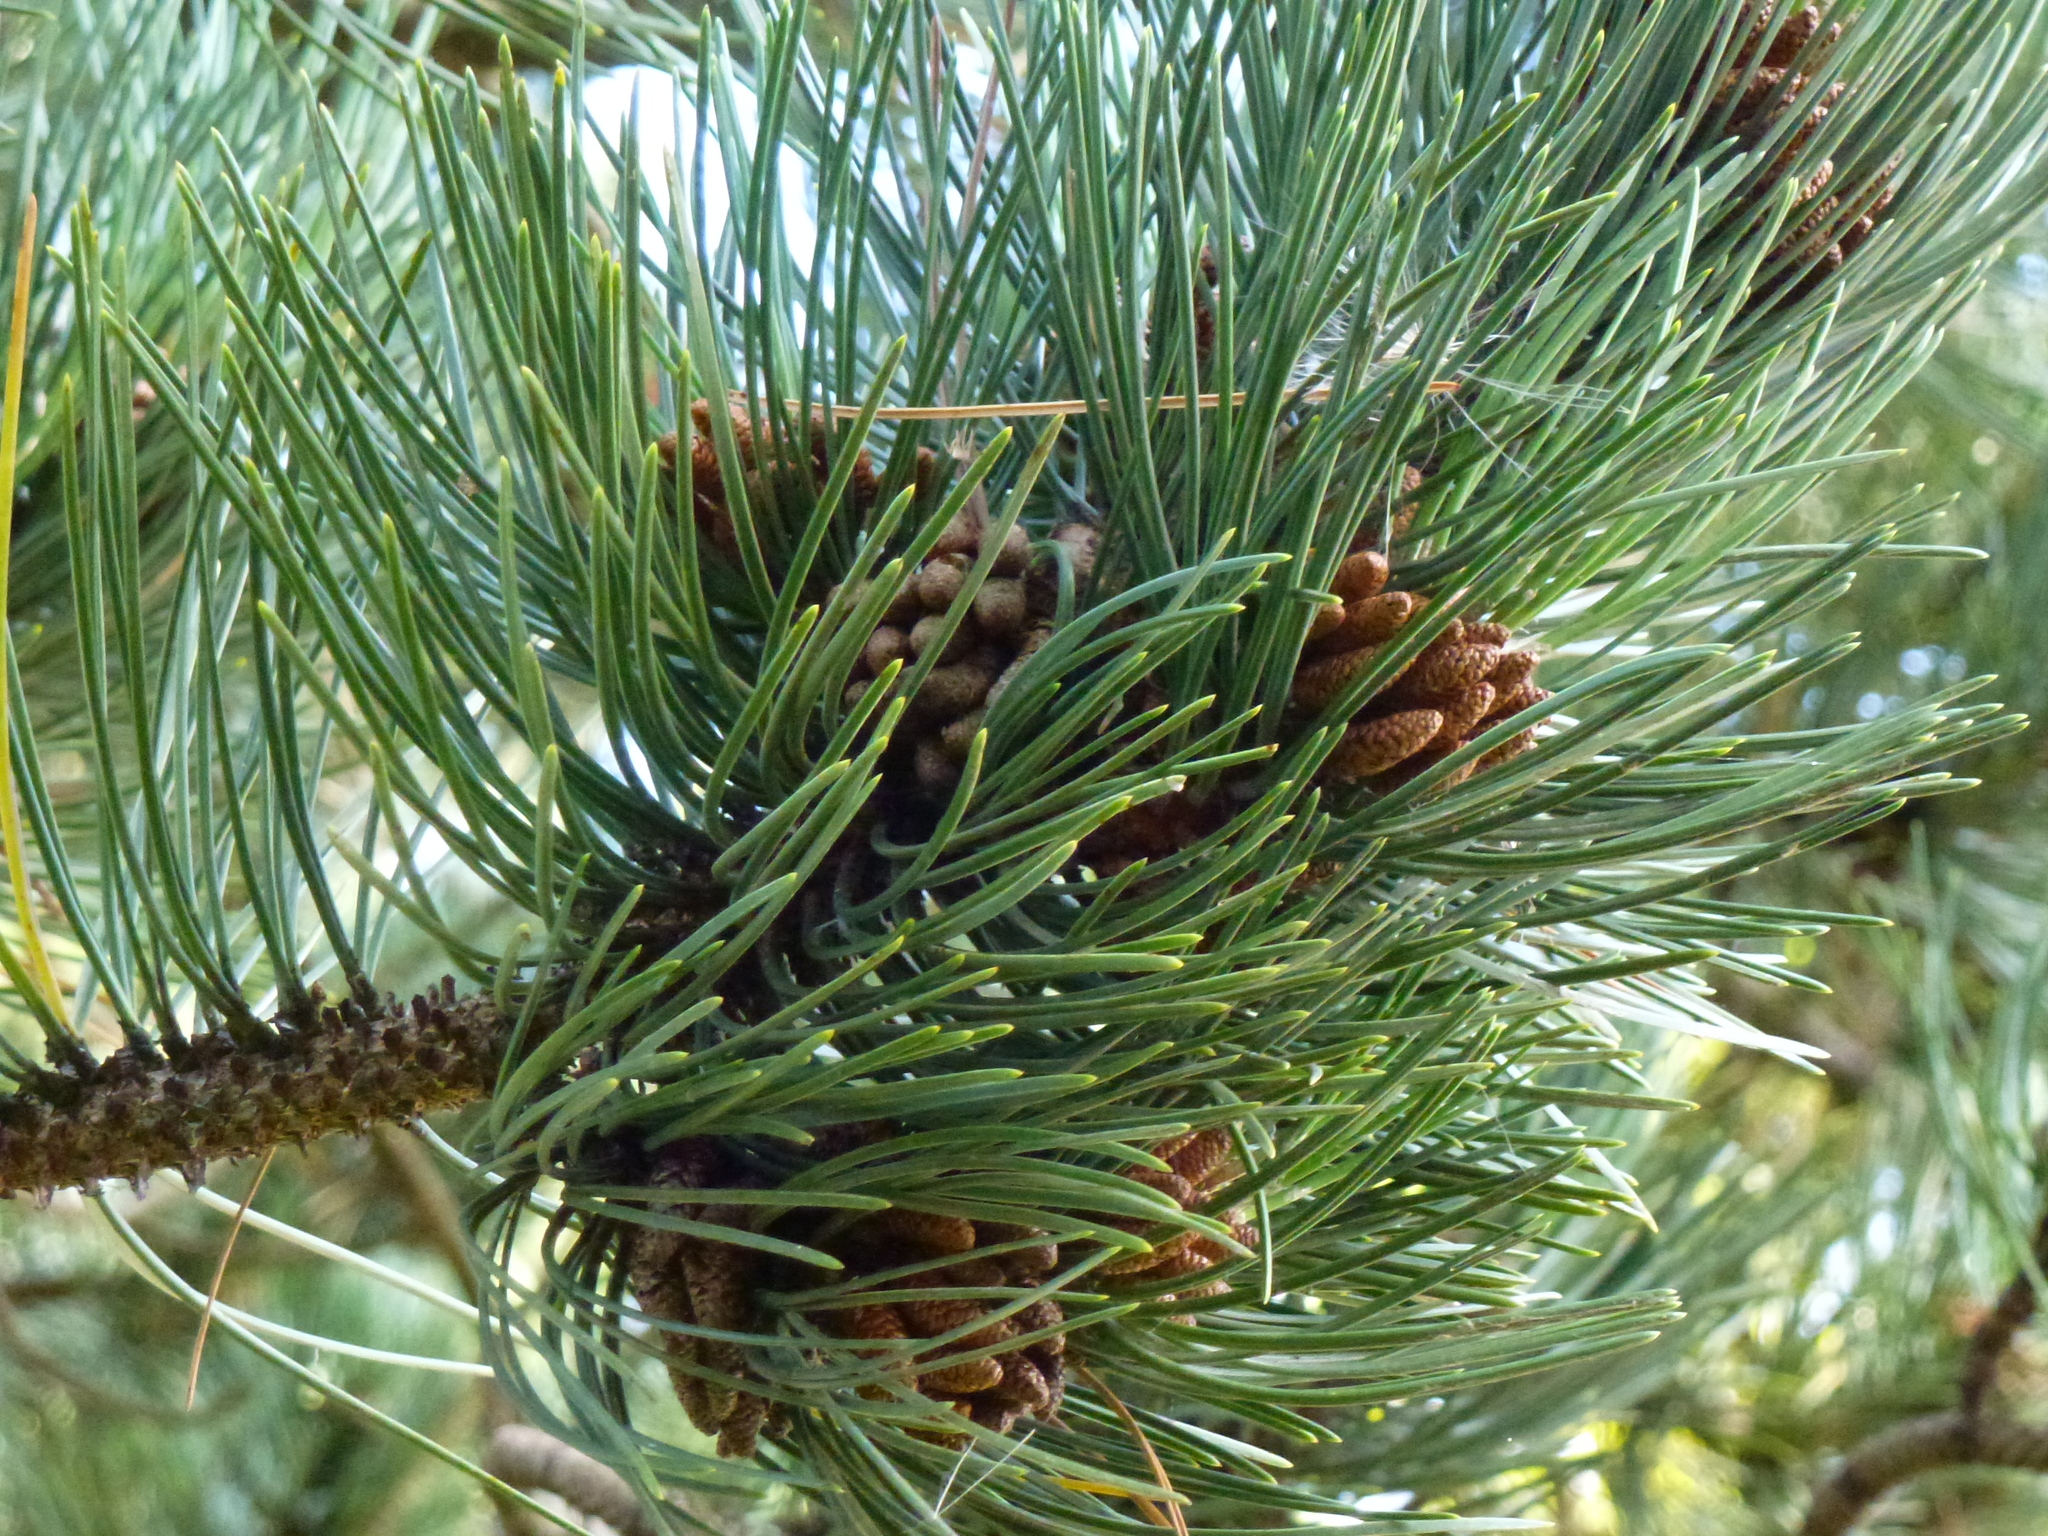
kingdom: Plantae
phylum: Tracheophyta
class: Pinopsida
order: Pinales
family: Pinaceae
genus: Pinus
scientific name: Pinus sylvestris
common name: Scots pine
